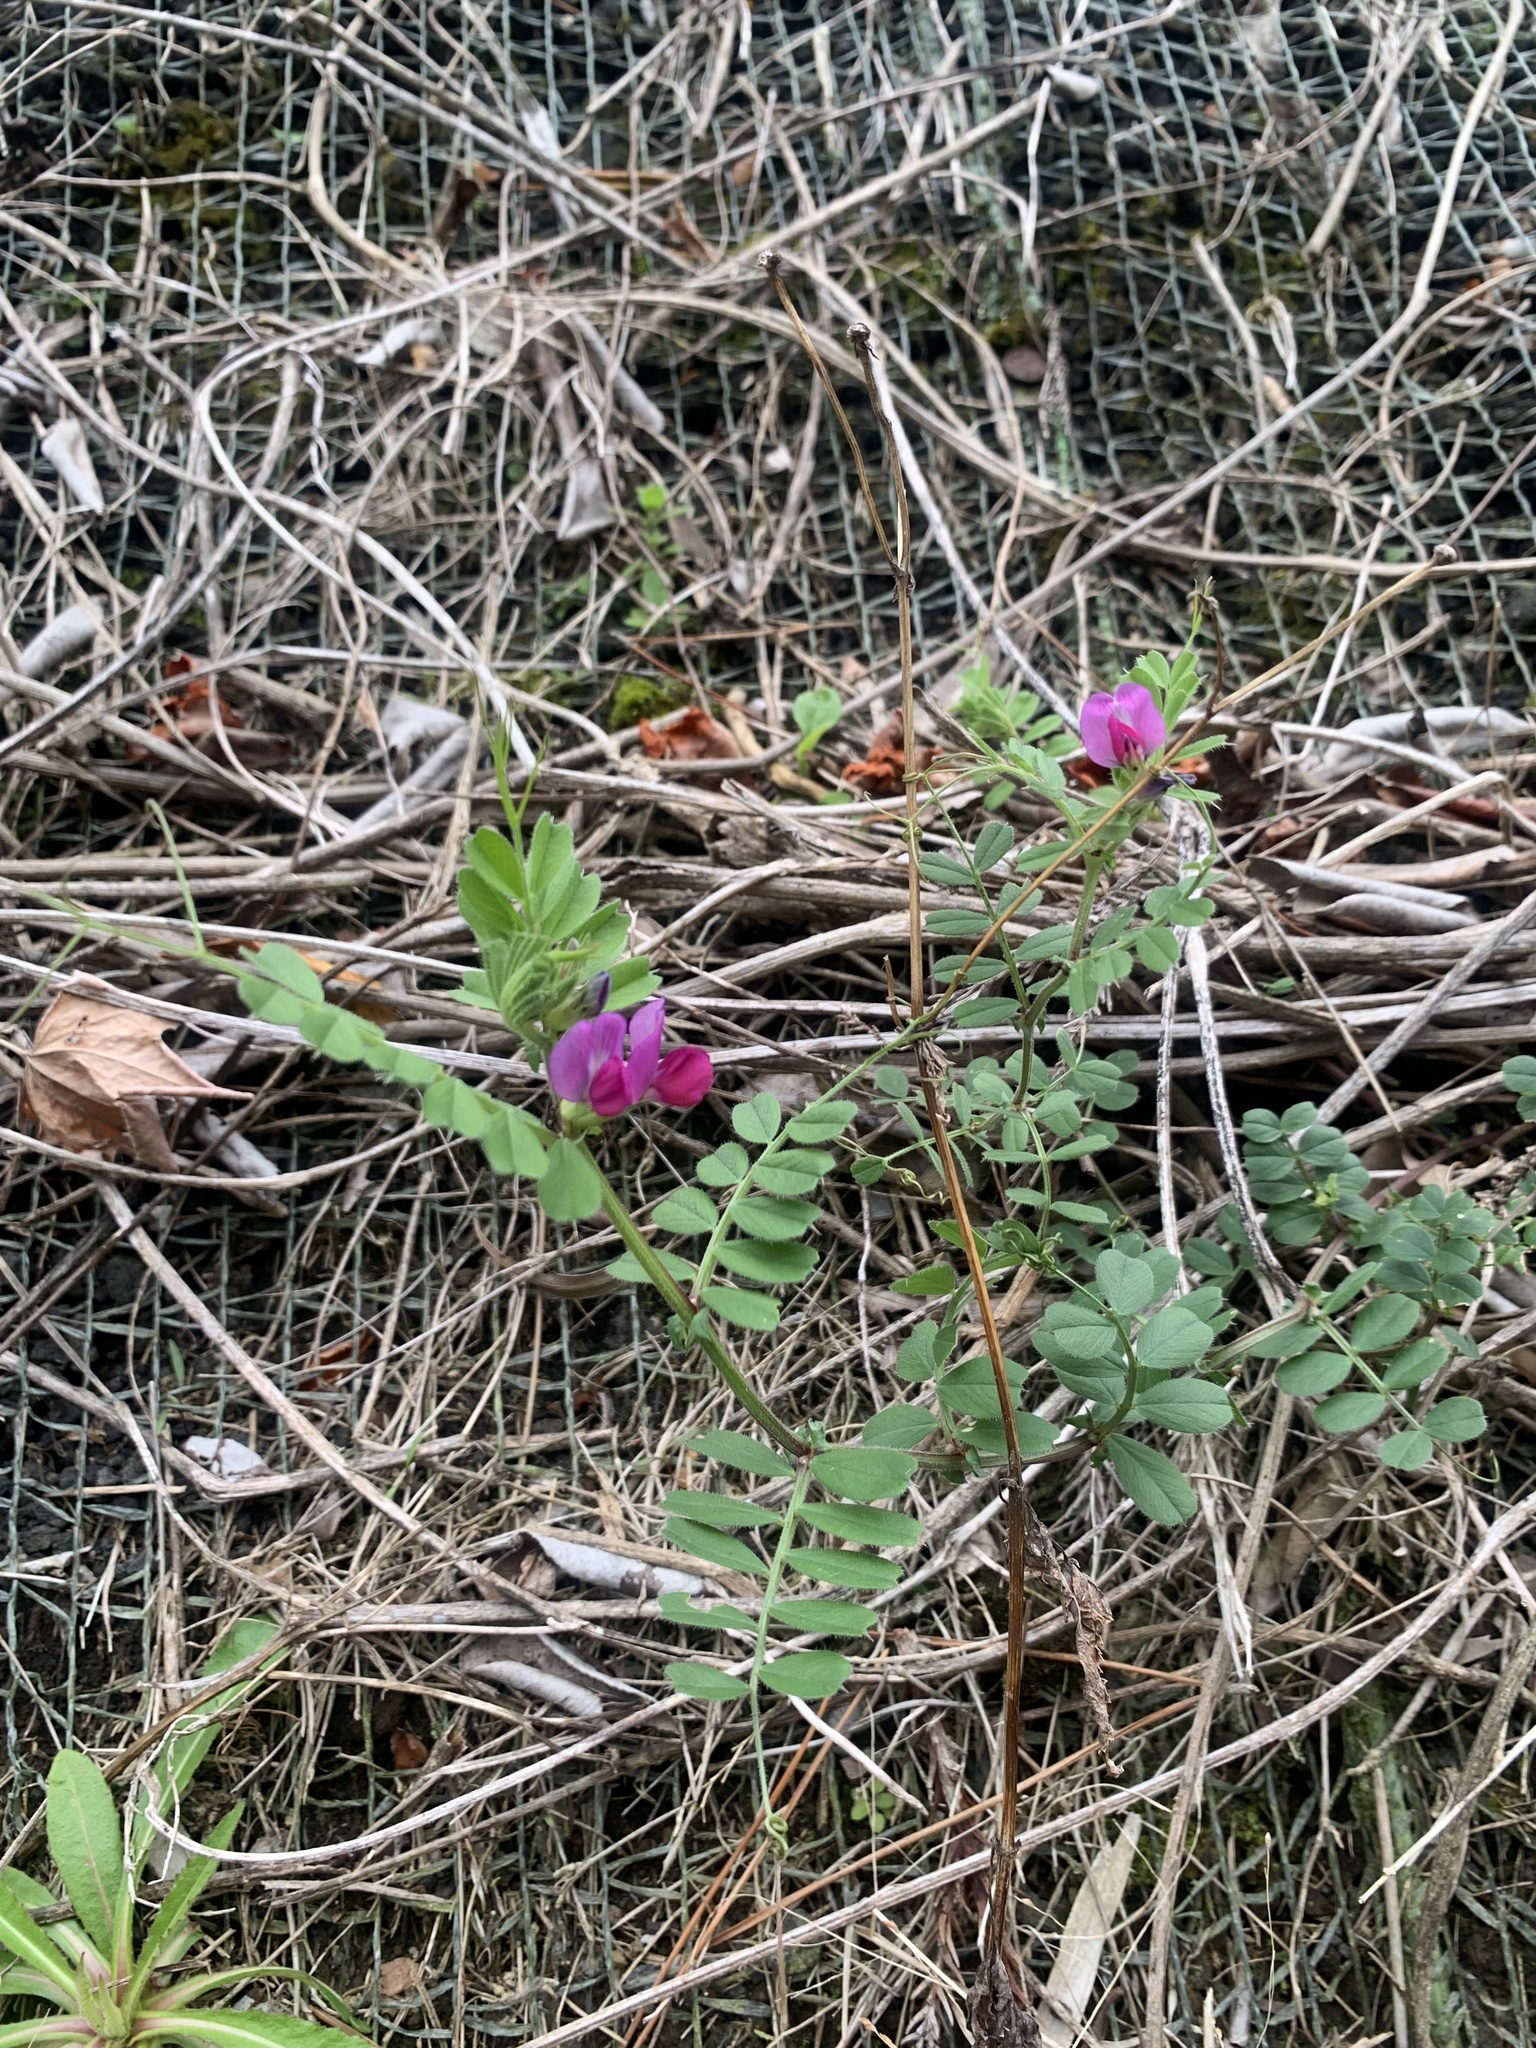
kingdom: Plantae
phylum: Tracheophyta
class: Magnoliopsida
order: Fabales
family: Fabaceae
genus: Vicia
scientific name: Vicia sativa
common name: Garden vetch
